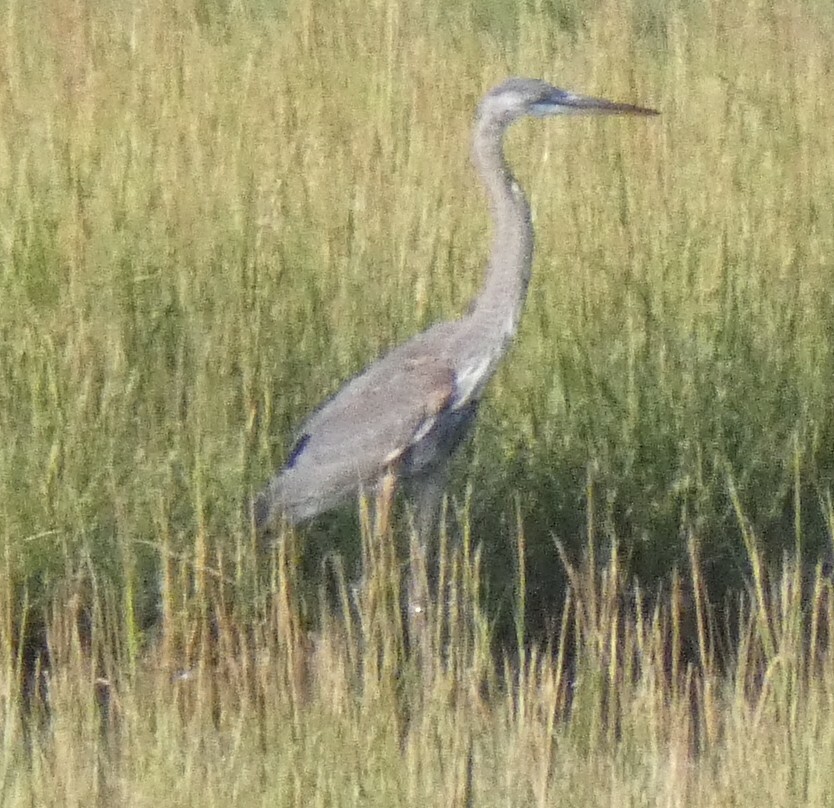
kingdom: Animalia
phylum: Chordata
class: Aves
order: Pelecaniformes
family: Ardeidae
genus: Ardea
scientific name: Ardea herodias
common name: Great blue heron
